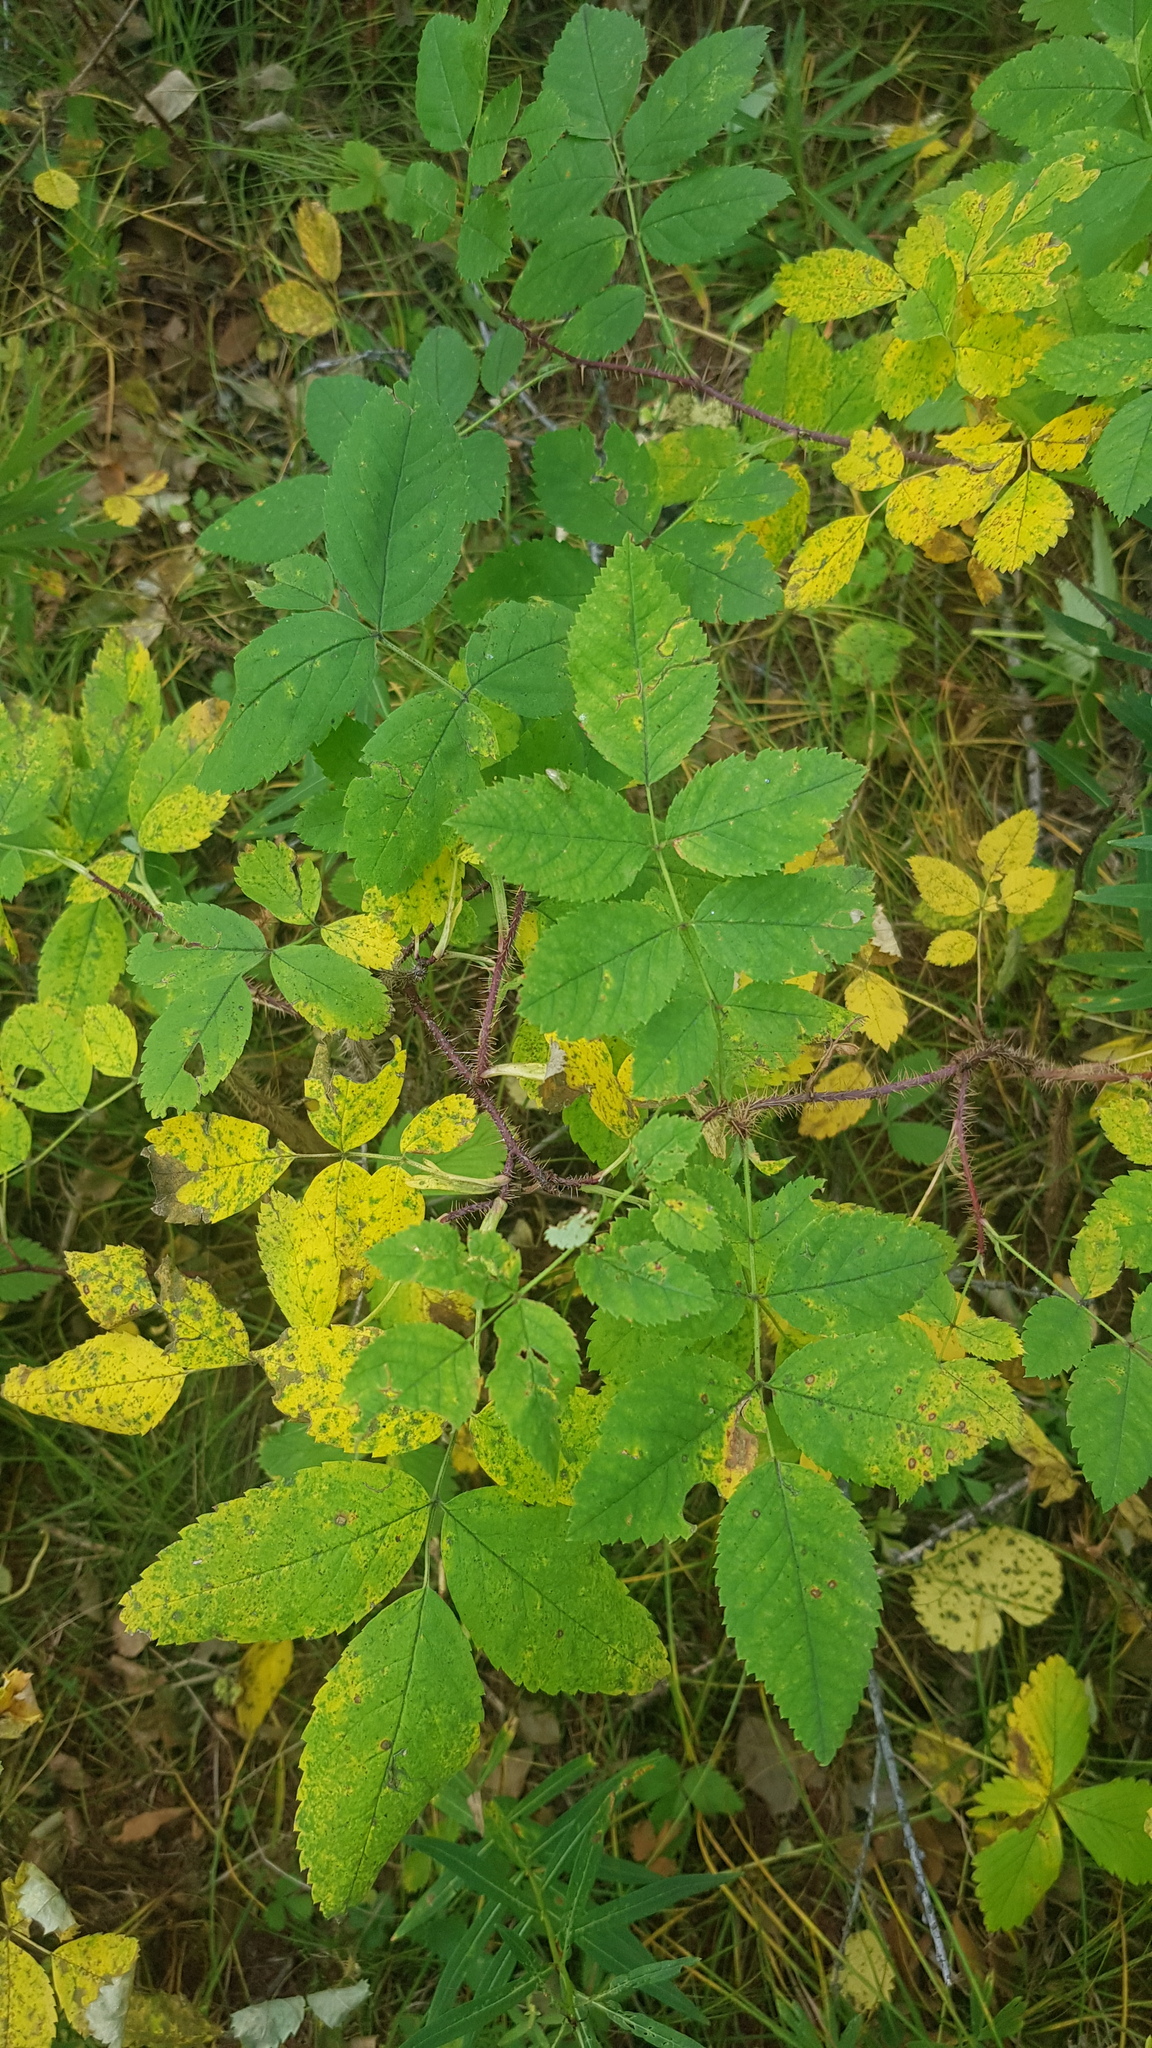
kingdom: Plantae
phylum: Tracheophyta
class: Magnoliopsida
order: Rosales
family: Rosaceae
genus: Rosa
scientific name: Rosa acicularis
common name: Prickly rose
